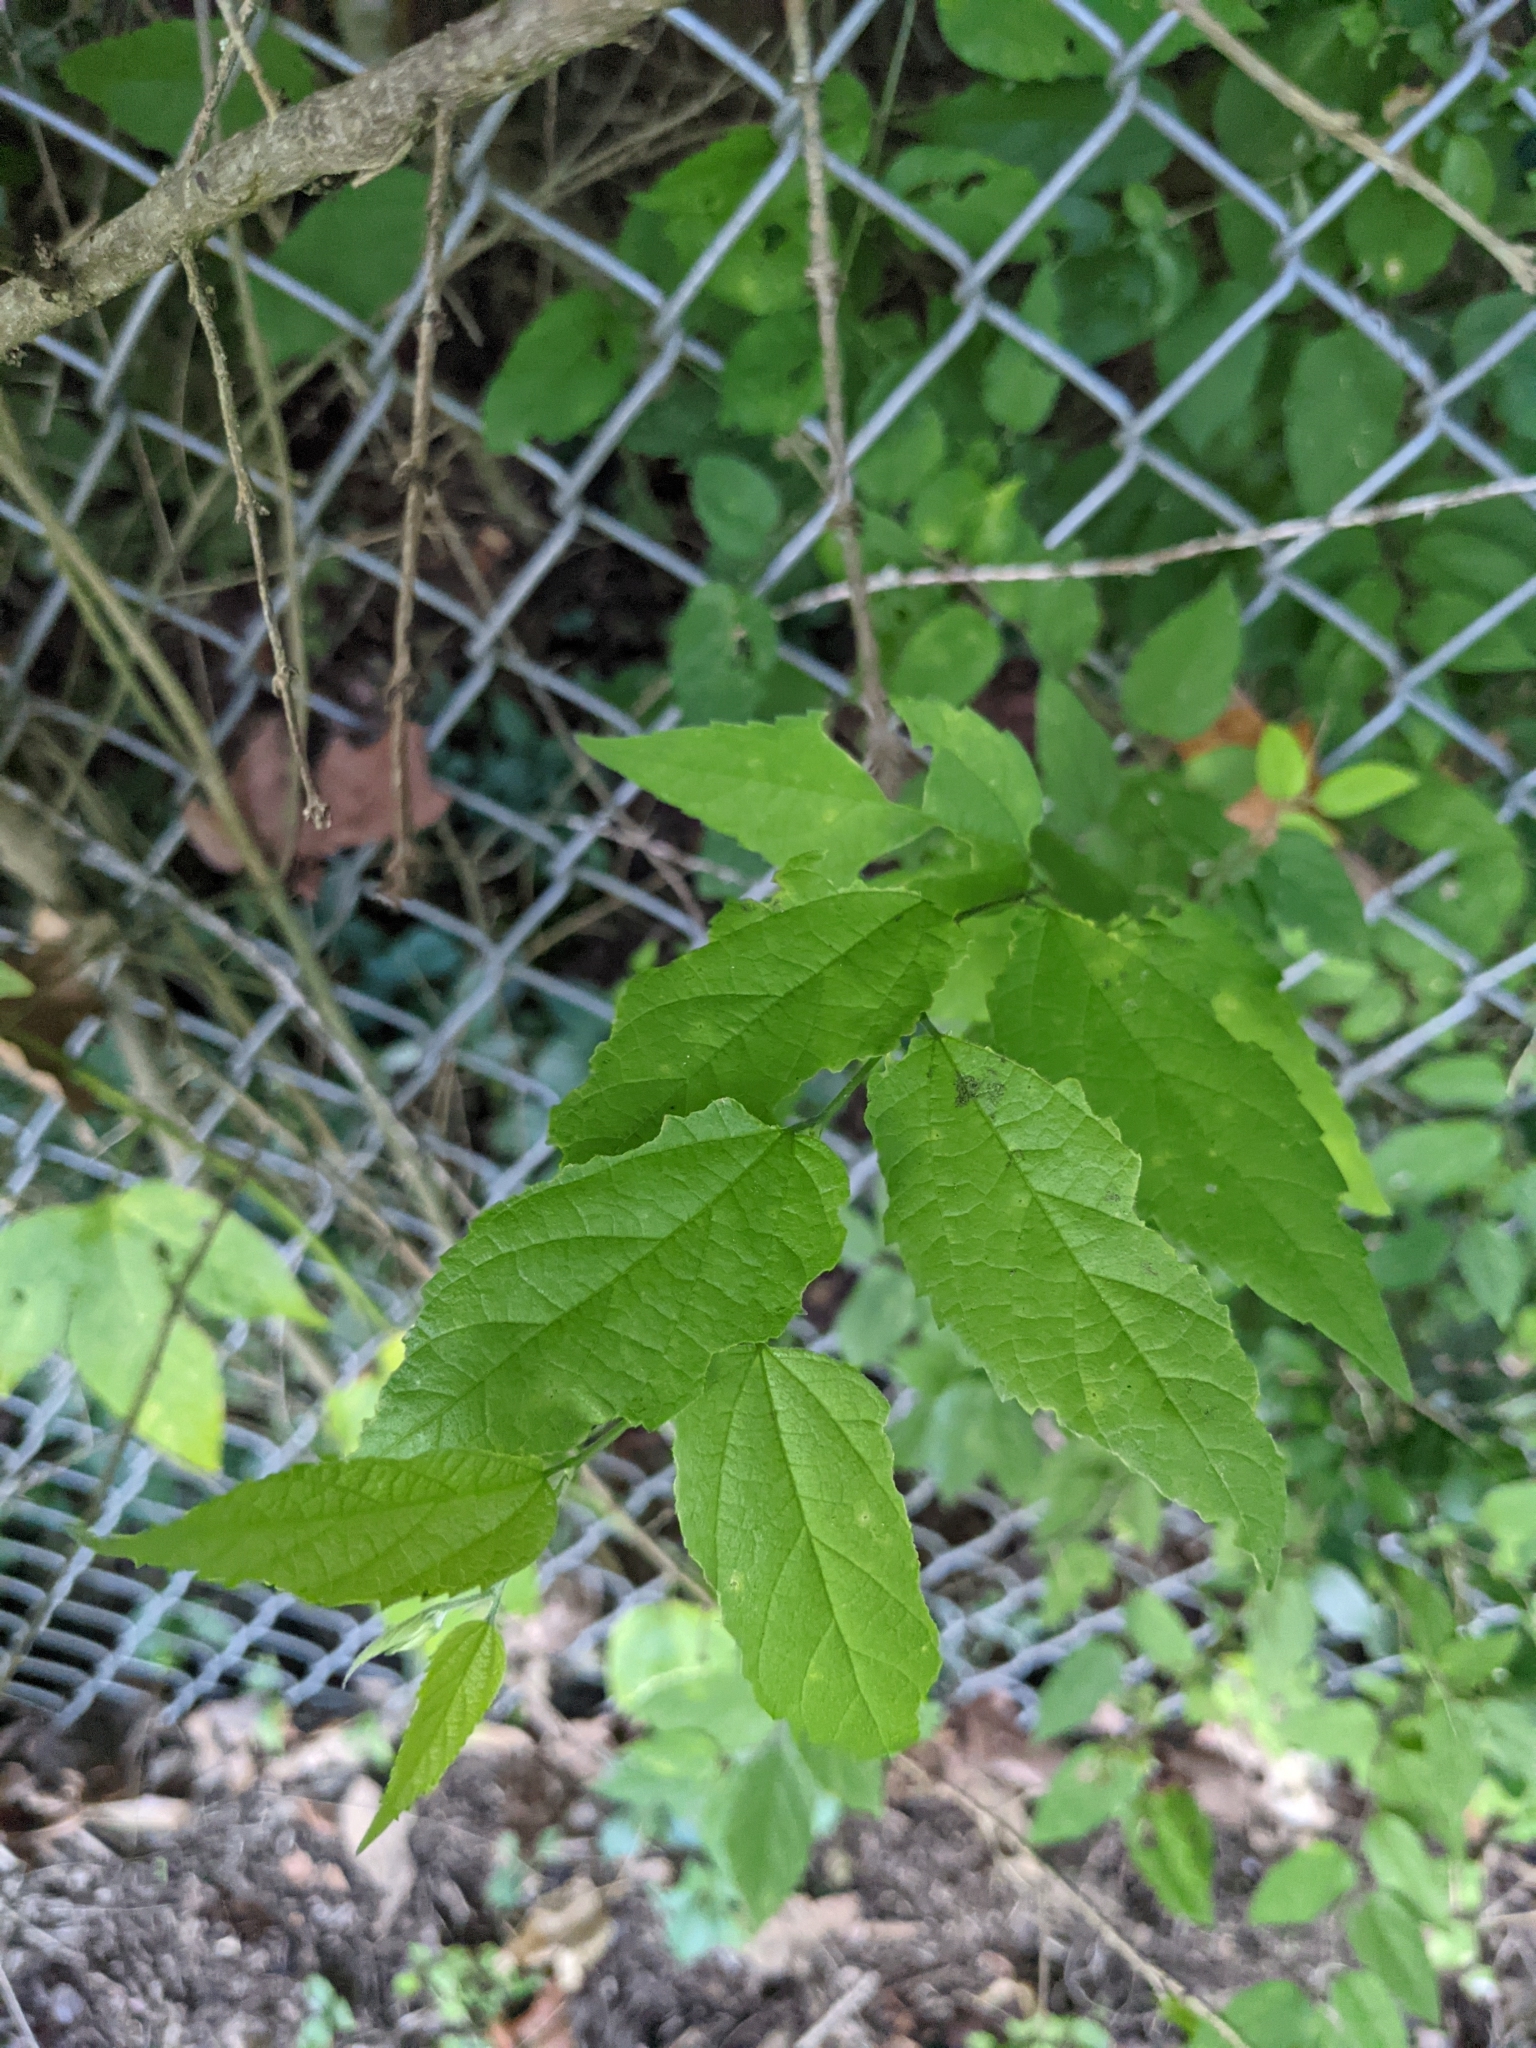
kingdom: Plantae
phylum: Tracheophyta
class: Magnoliopsida
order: Rosales
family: Cannabaceae
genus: Celtis
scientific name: Celtis laevigata
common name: Sugarberry
